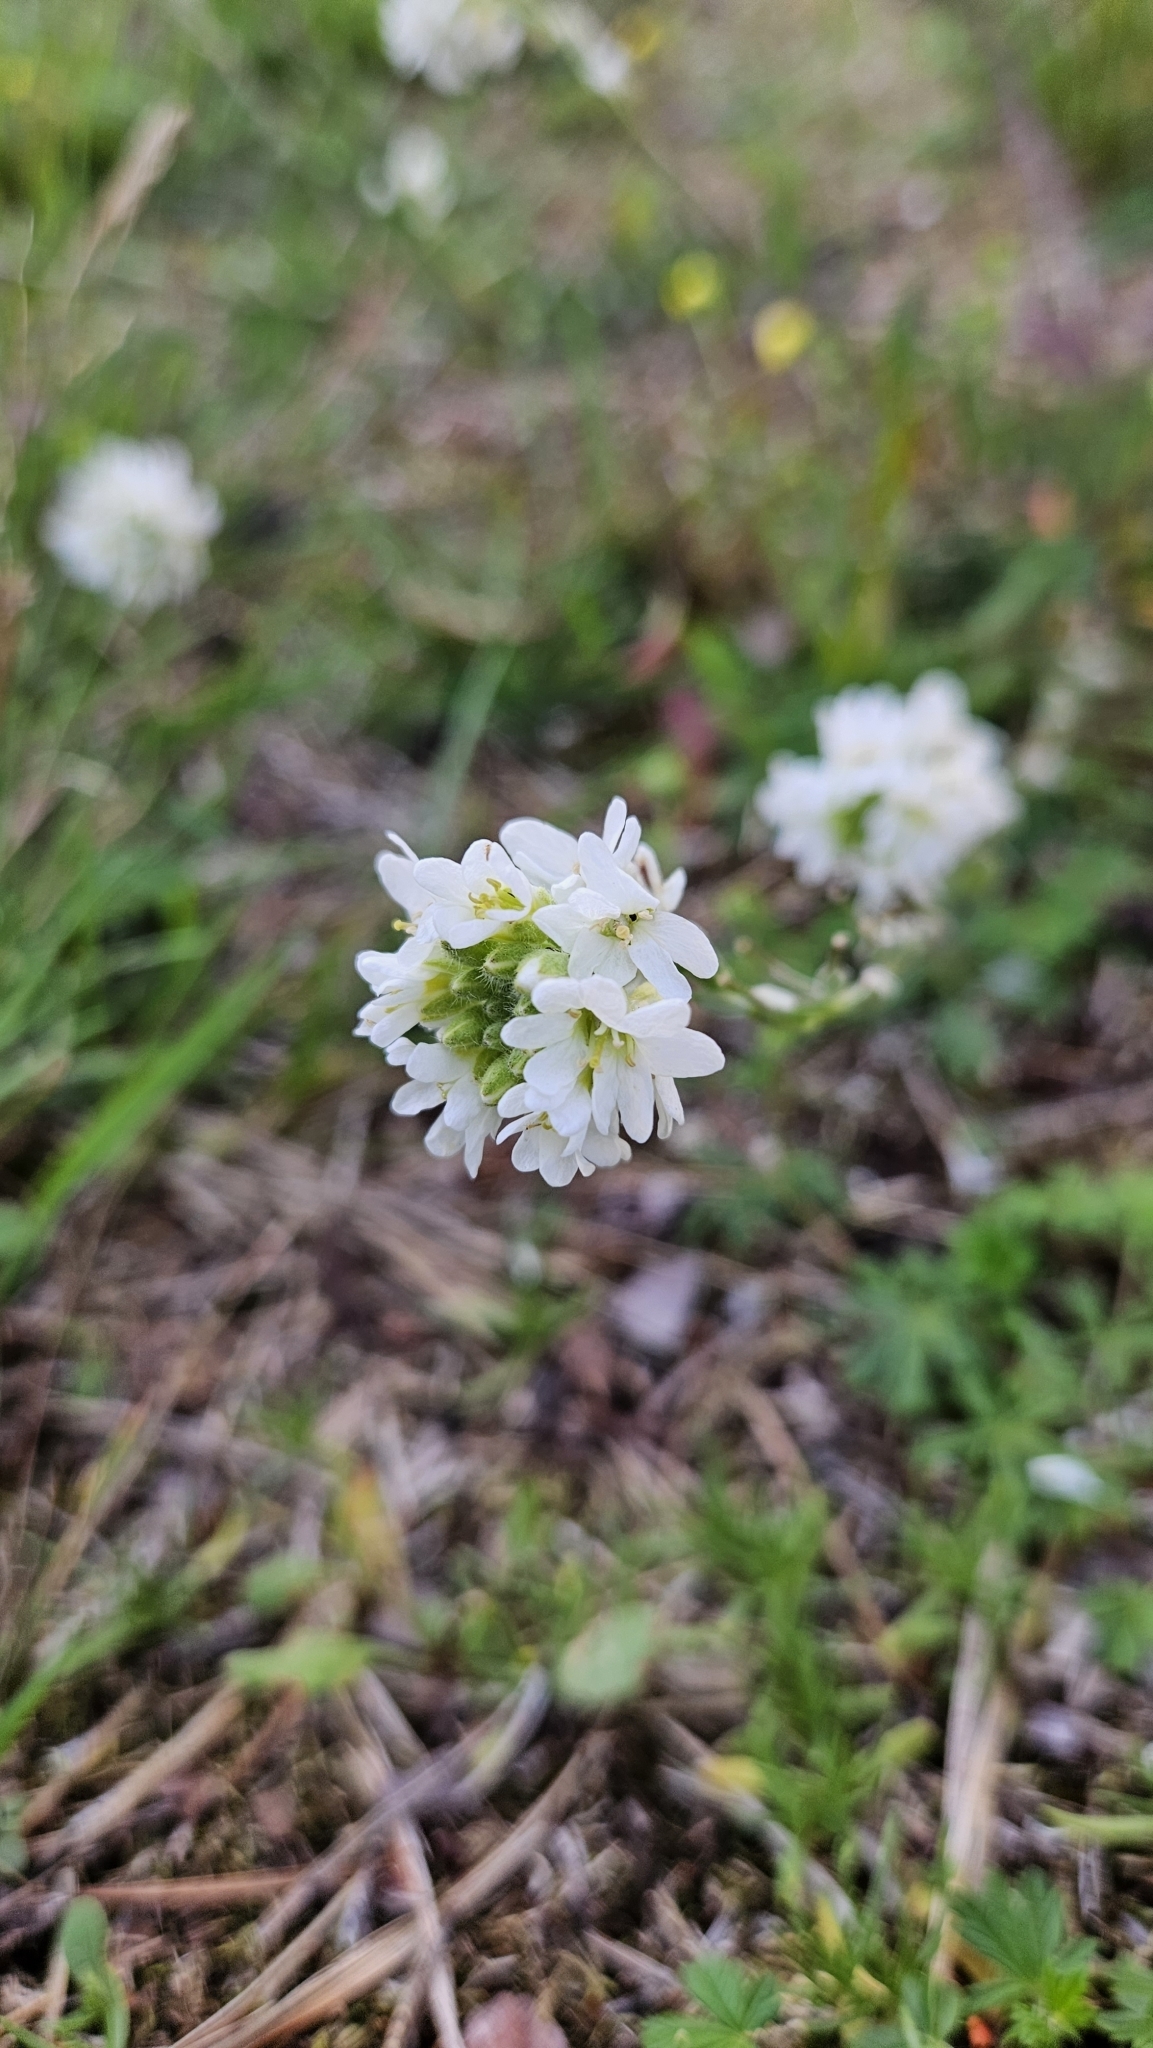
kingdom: Plantae
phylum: Tracheophyta
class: Magnoliopsida
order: Brassicales
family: Brassicaceae
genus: Berteroa
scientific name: Berteroa incana
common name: Hoary alison
